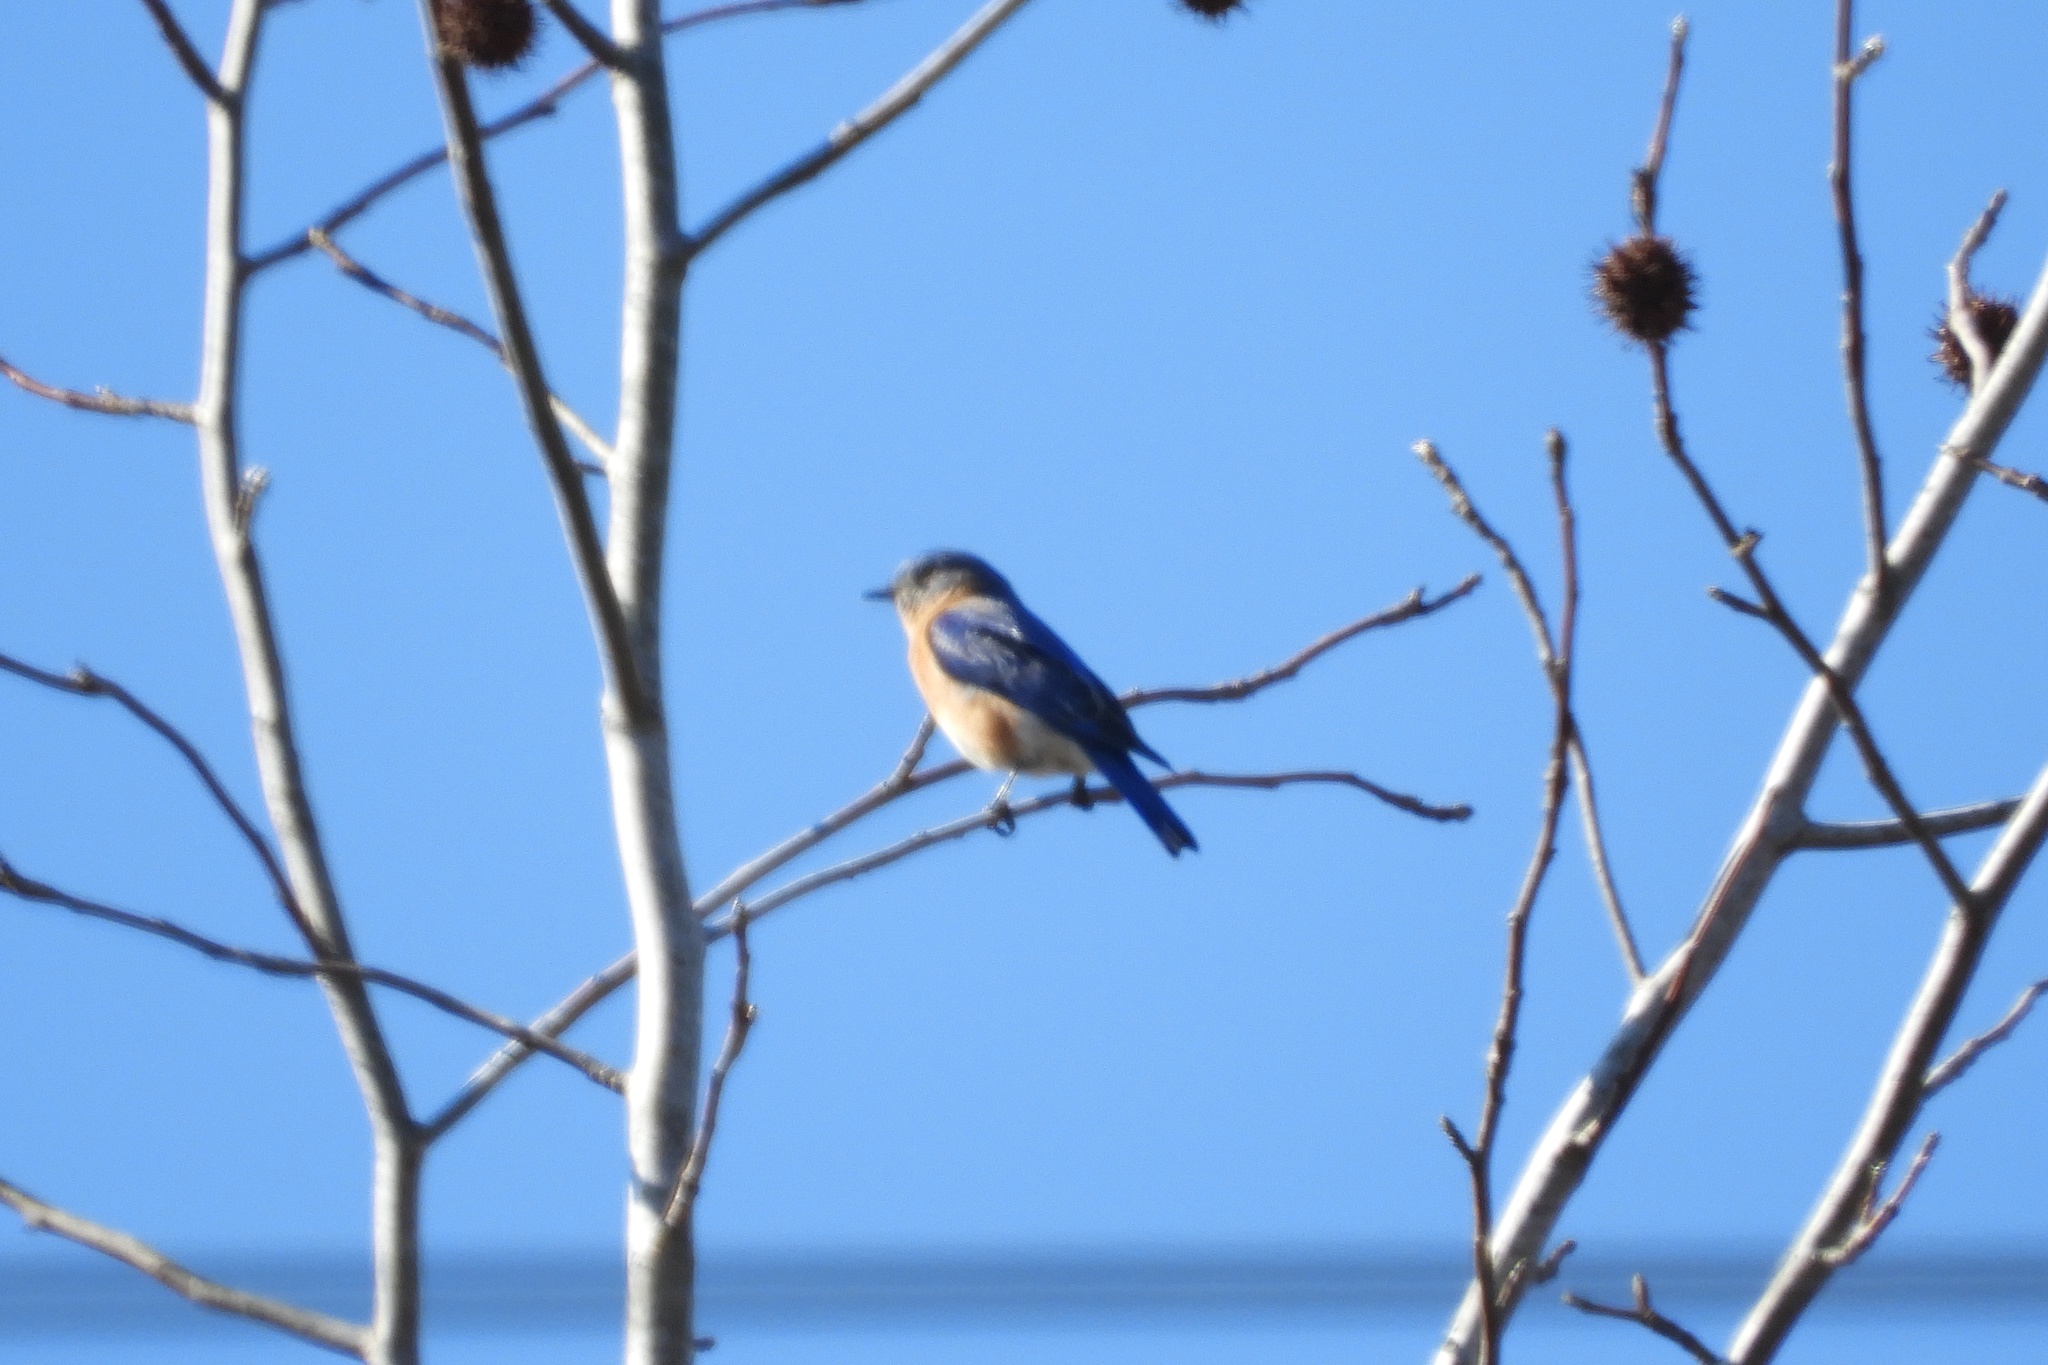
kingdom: Animalia
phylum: Chordata
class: Aves
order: Passeriformes
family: Turdidae
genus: Sialia
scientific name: Sialia sialis
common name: Eastern bluebird
